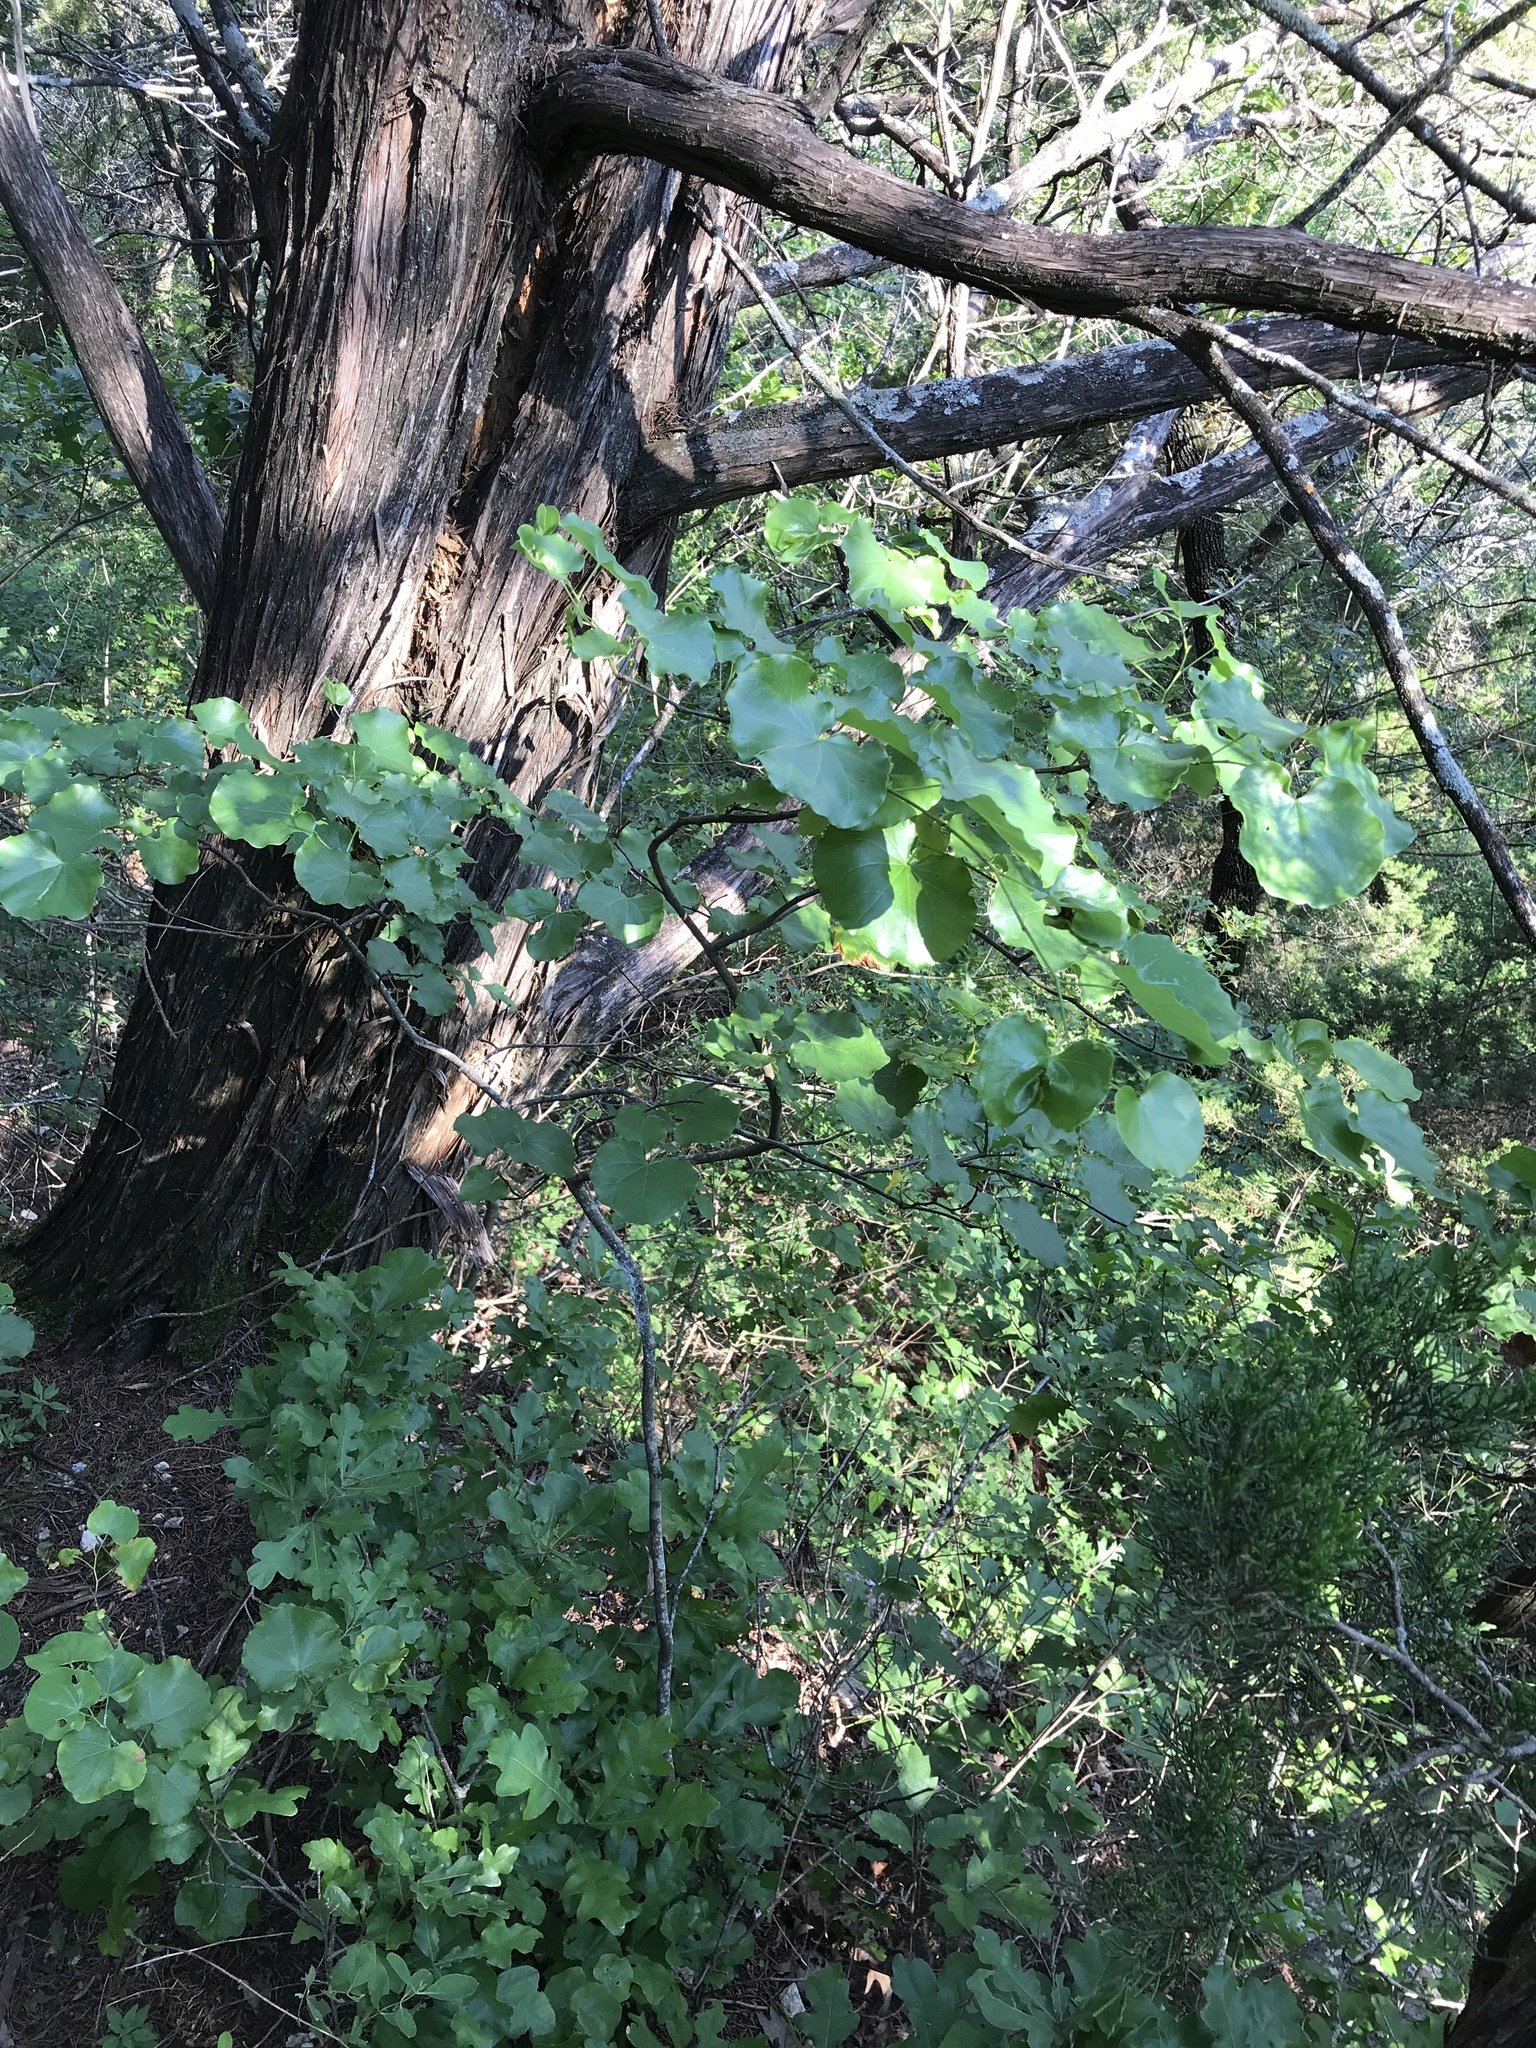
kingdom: Plantae
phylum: Tracheophyta
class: Magnoliopsida
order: Fabales
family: Fabaceae
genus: Cercis
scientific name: Cercis canadensis
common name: Eastern redbud
